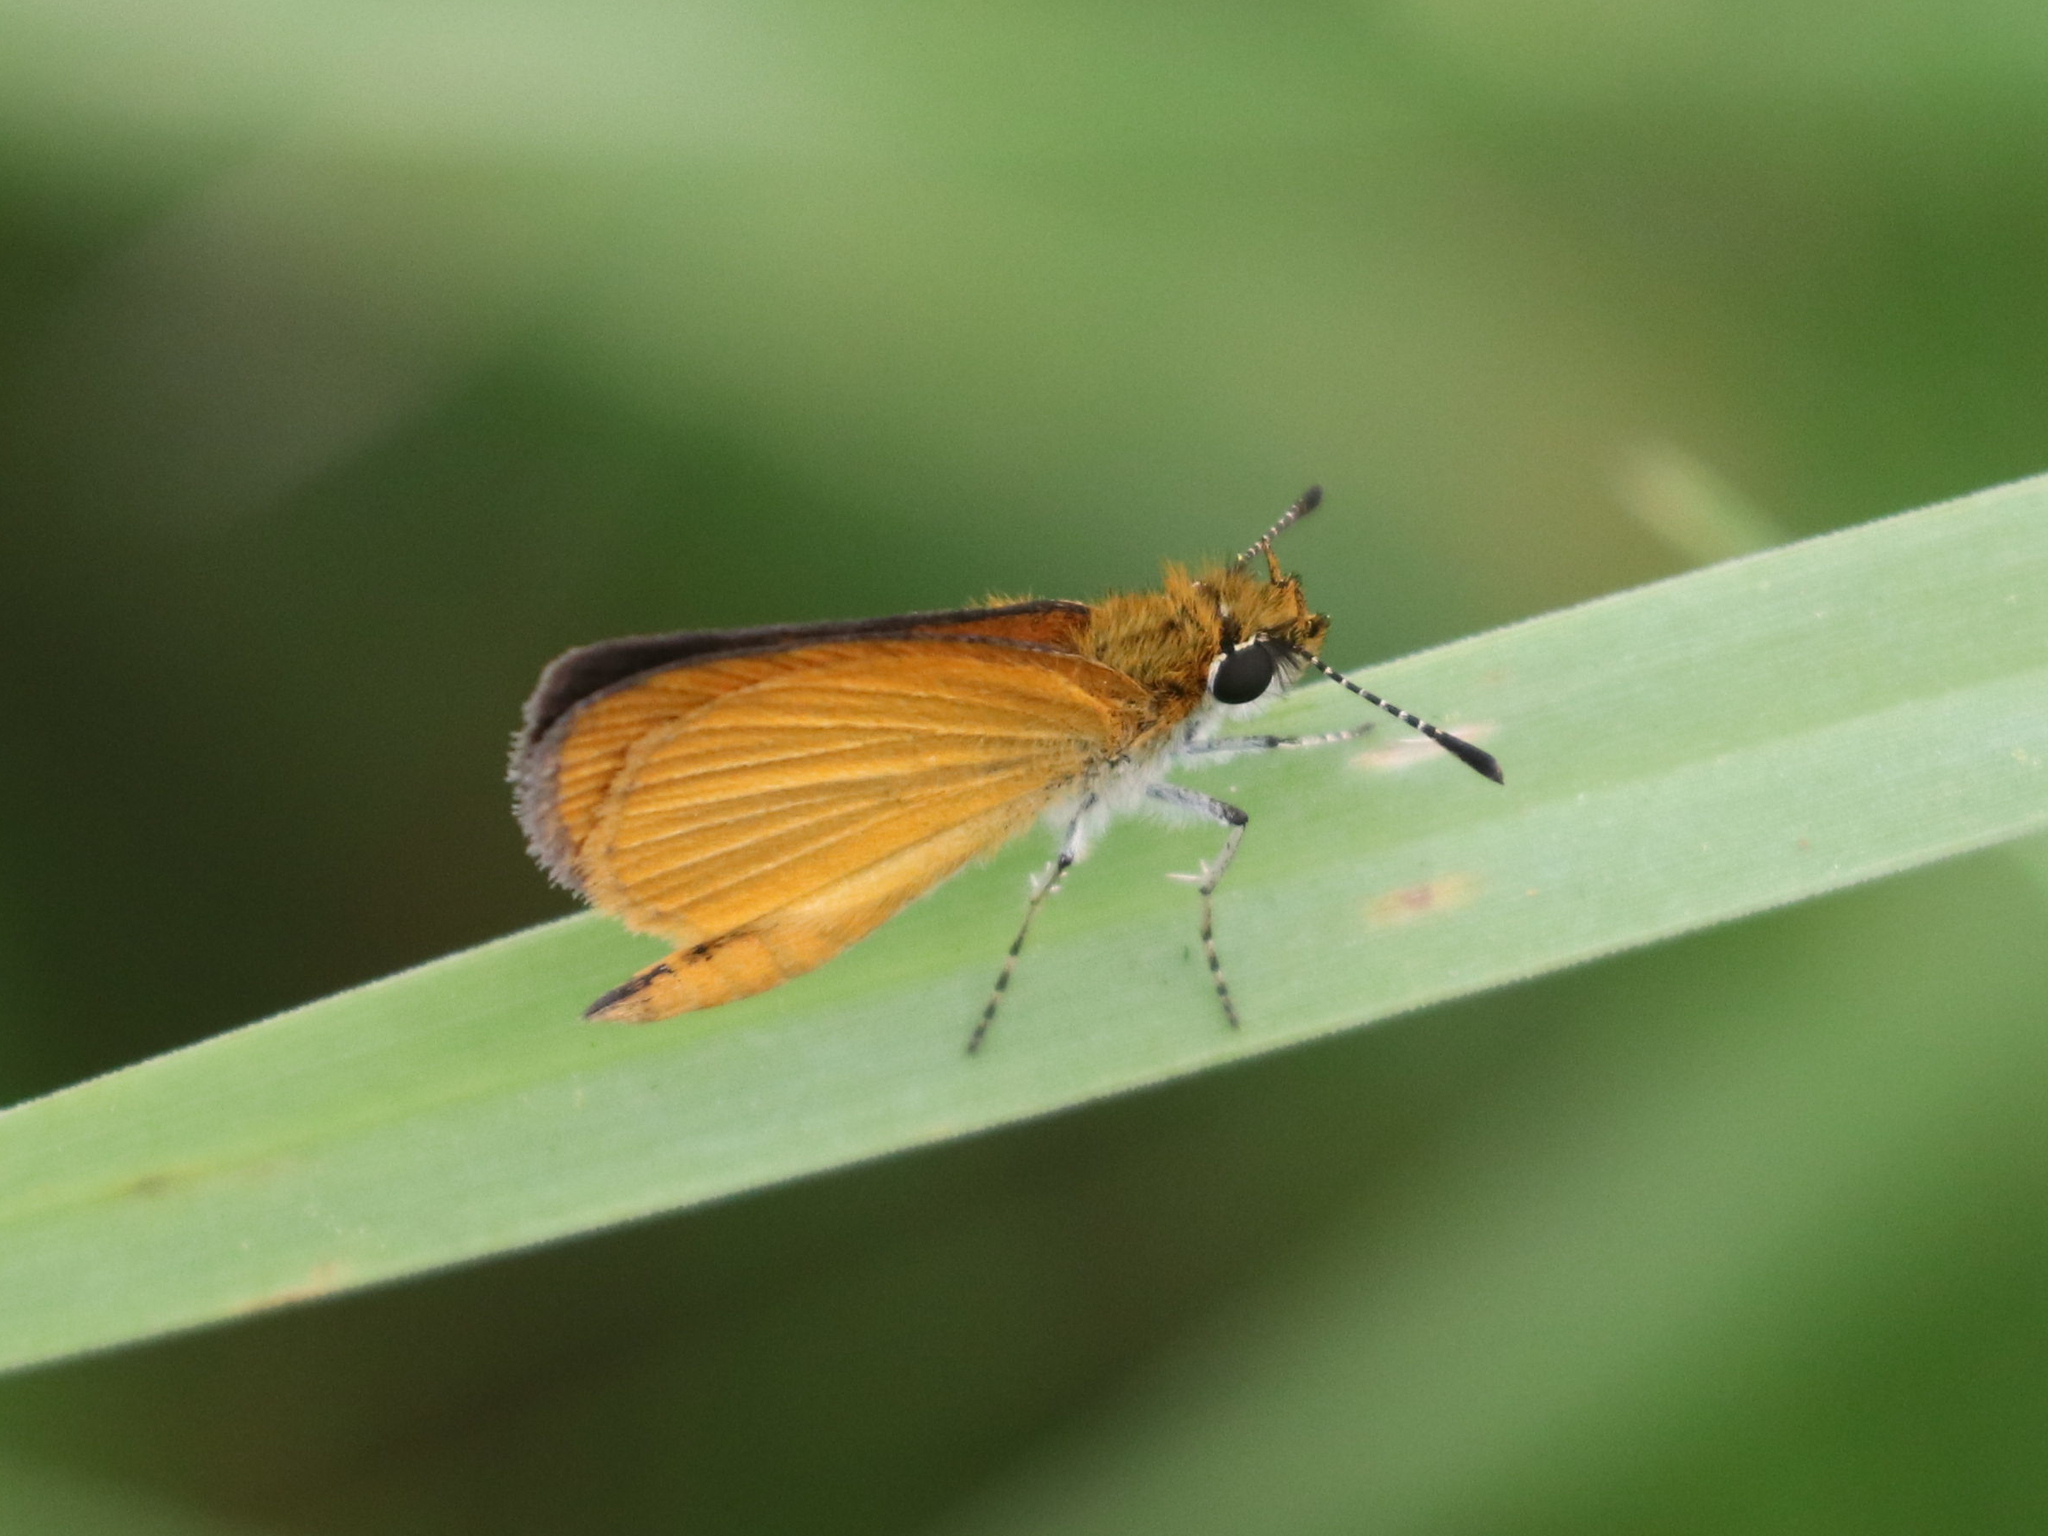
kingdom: Animalia
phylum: Arthropoda
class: Insecta
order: Lepidoptera
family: Hesperiidae
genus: Ancyloxypha
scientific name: Ancyloxypha numitor
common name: Least skipper
